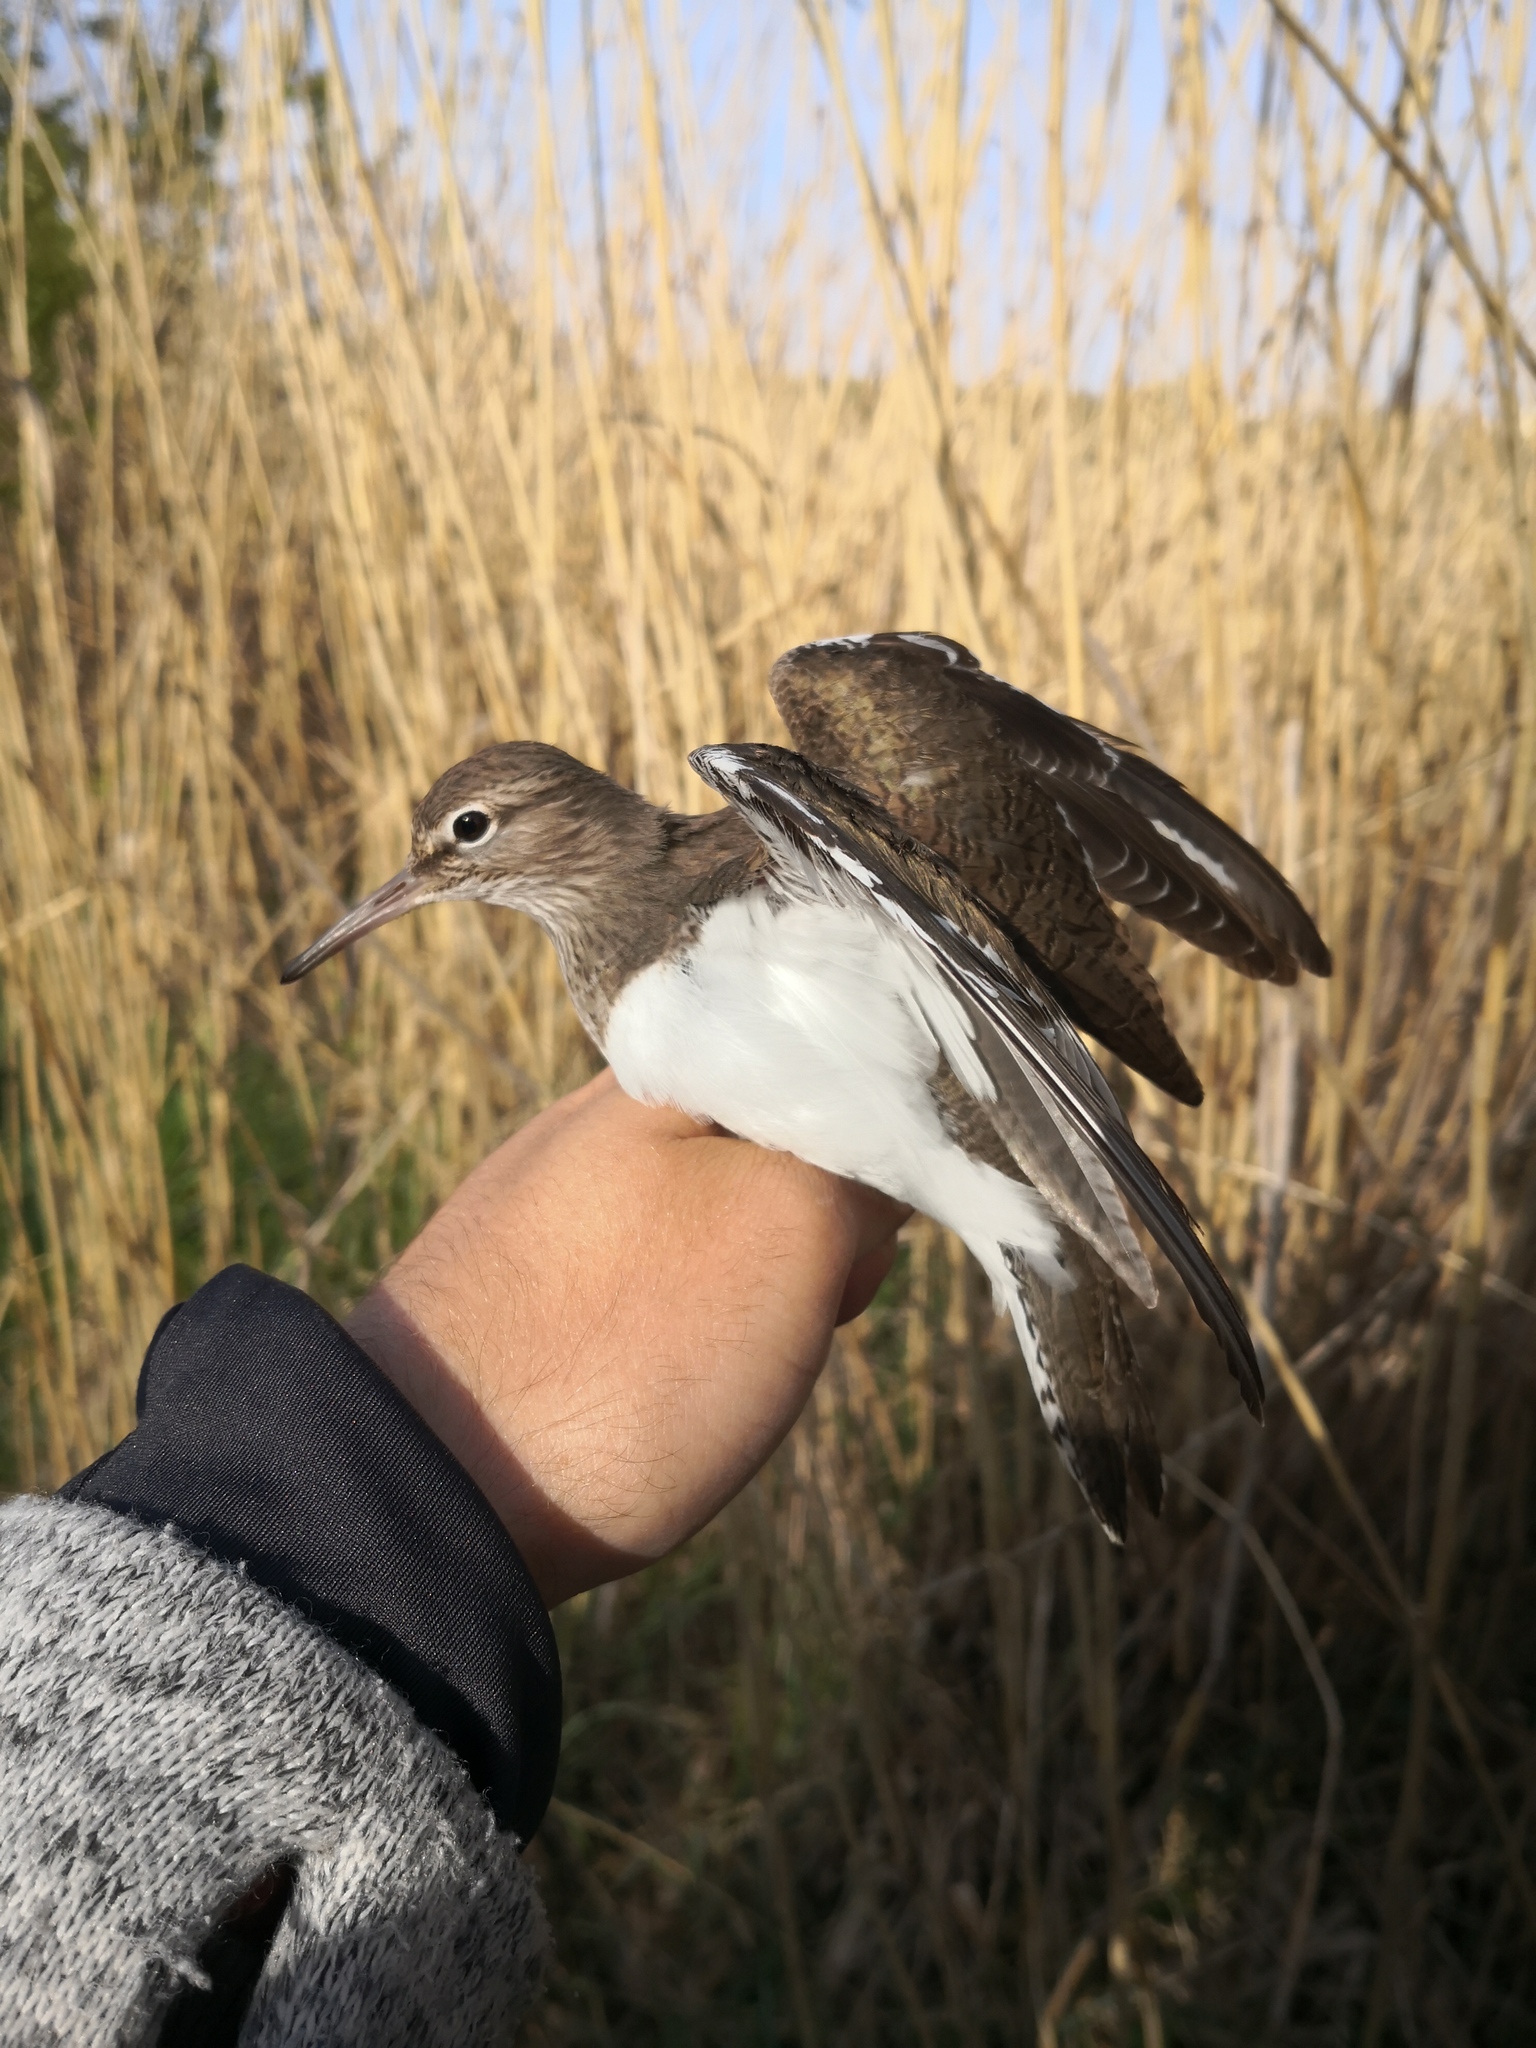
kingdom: Animalia
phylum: Chordata
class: Aves
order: Charadriiformes
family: Scolopacidae
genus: Actitis
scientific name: Actitis hypoleucos
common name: Common sandpiper
